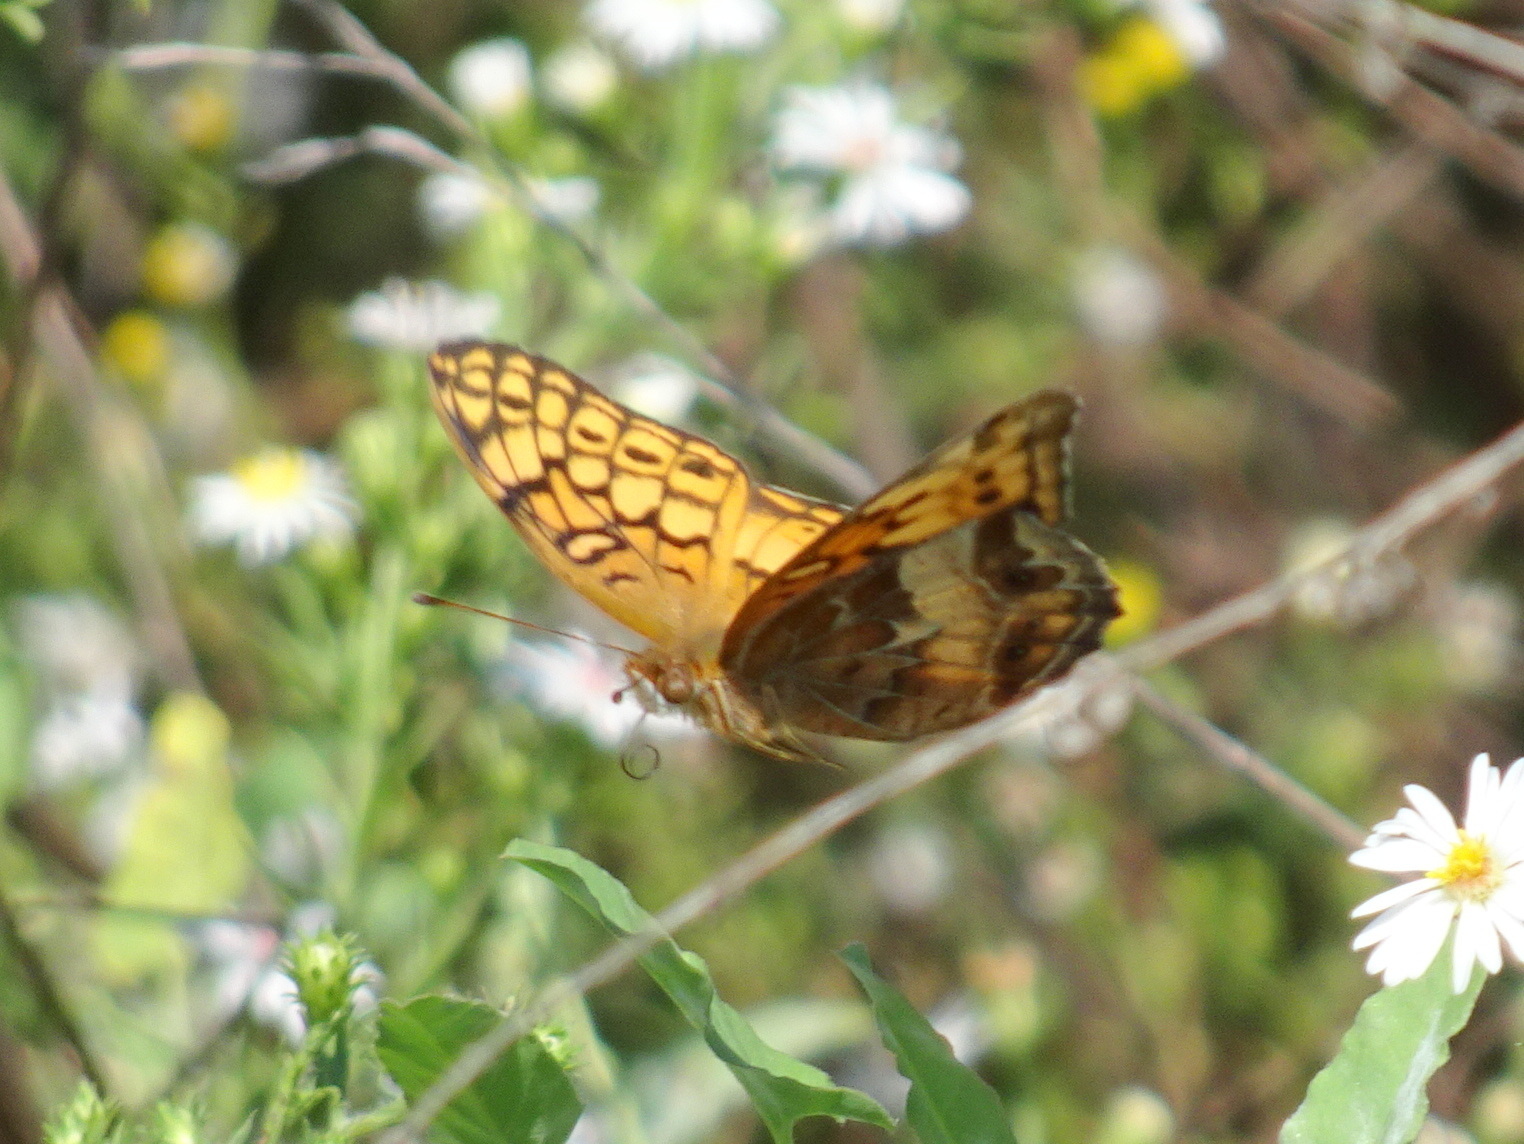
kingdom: Animalia
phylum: Arthropoda
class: Insecta
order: Lepidoptera
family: Nymphalidae
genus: Euptoieta
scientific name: Euptoieta claudia
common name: Variegated fritillary
